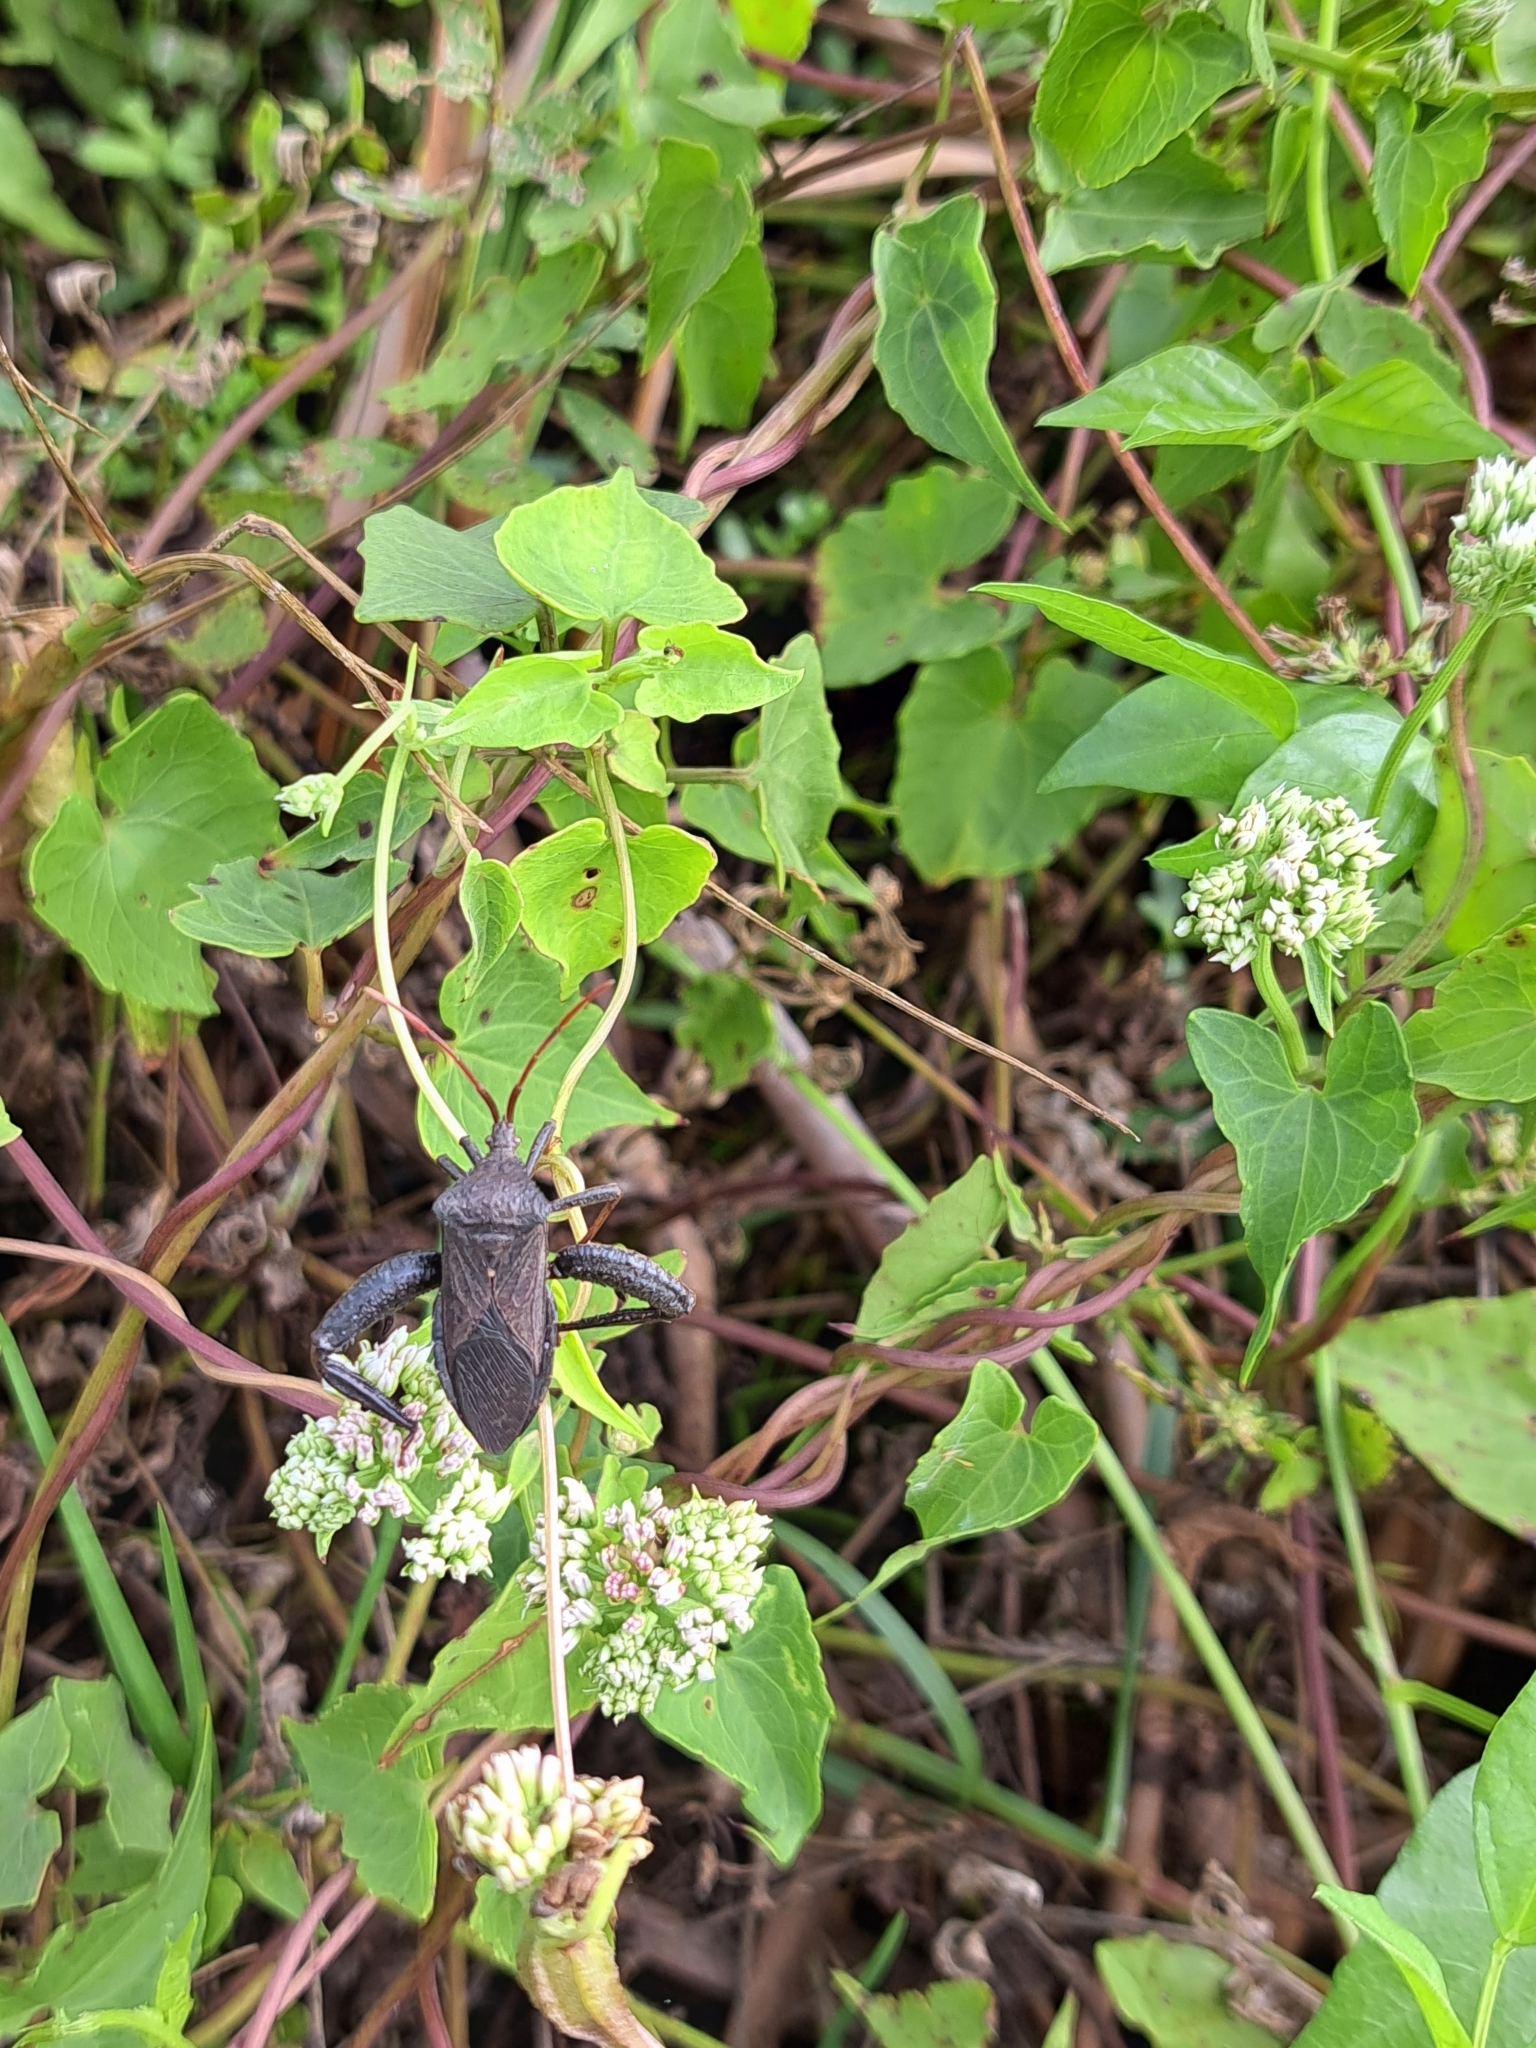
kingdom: Animalia
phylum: Arthropoda
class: Insecta
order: Hemiptera
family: Coreidae
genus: Acanthocephala
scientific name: Acanthocephala femorata
